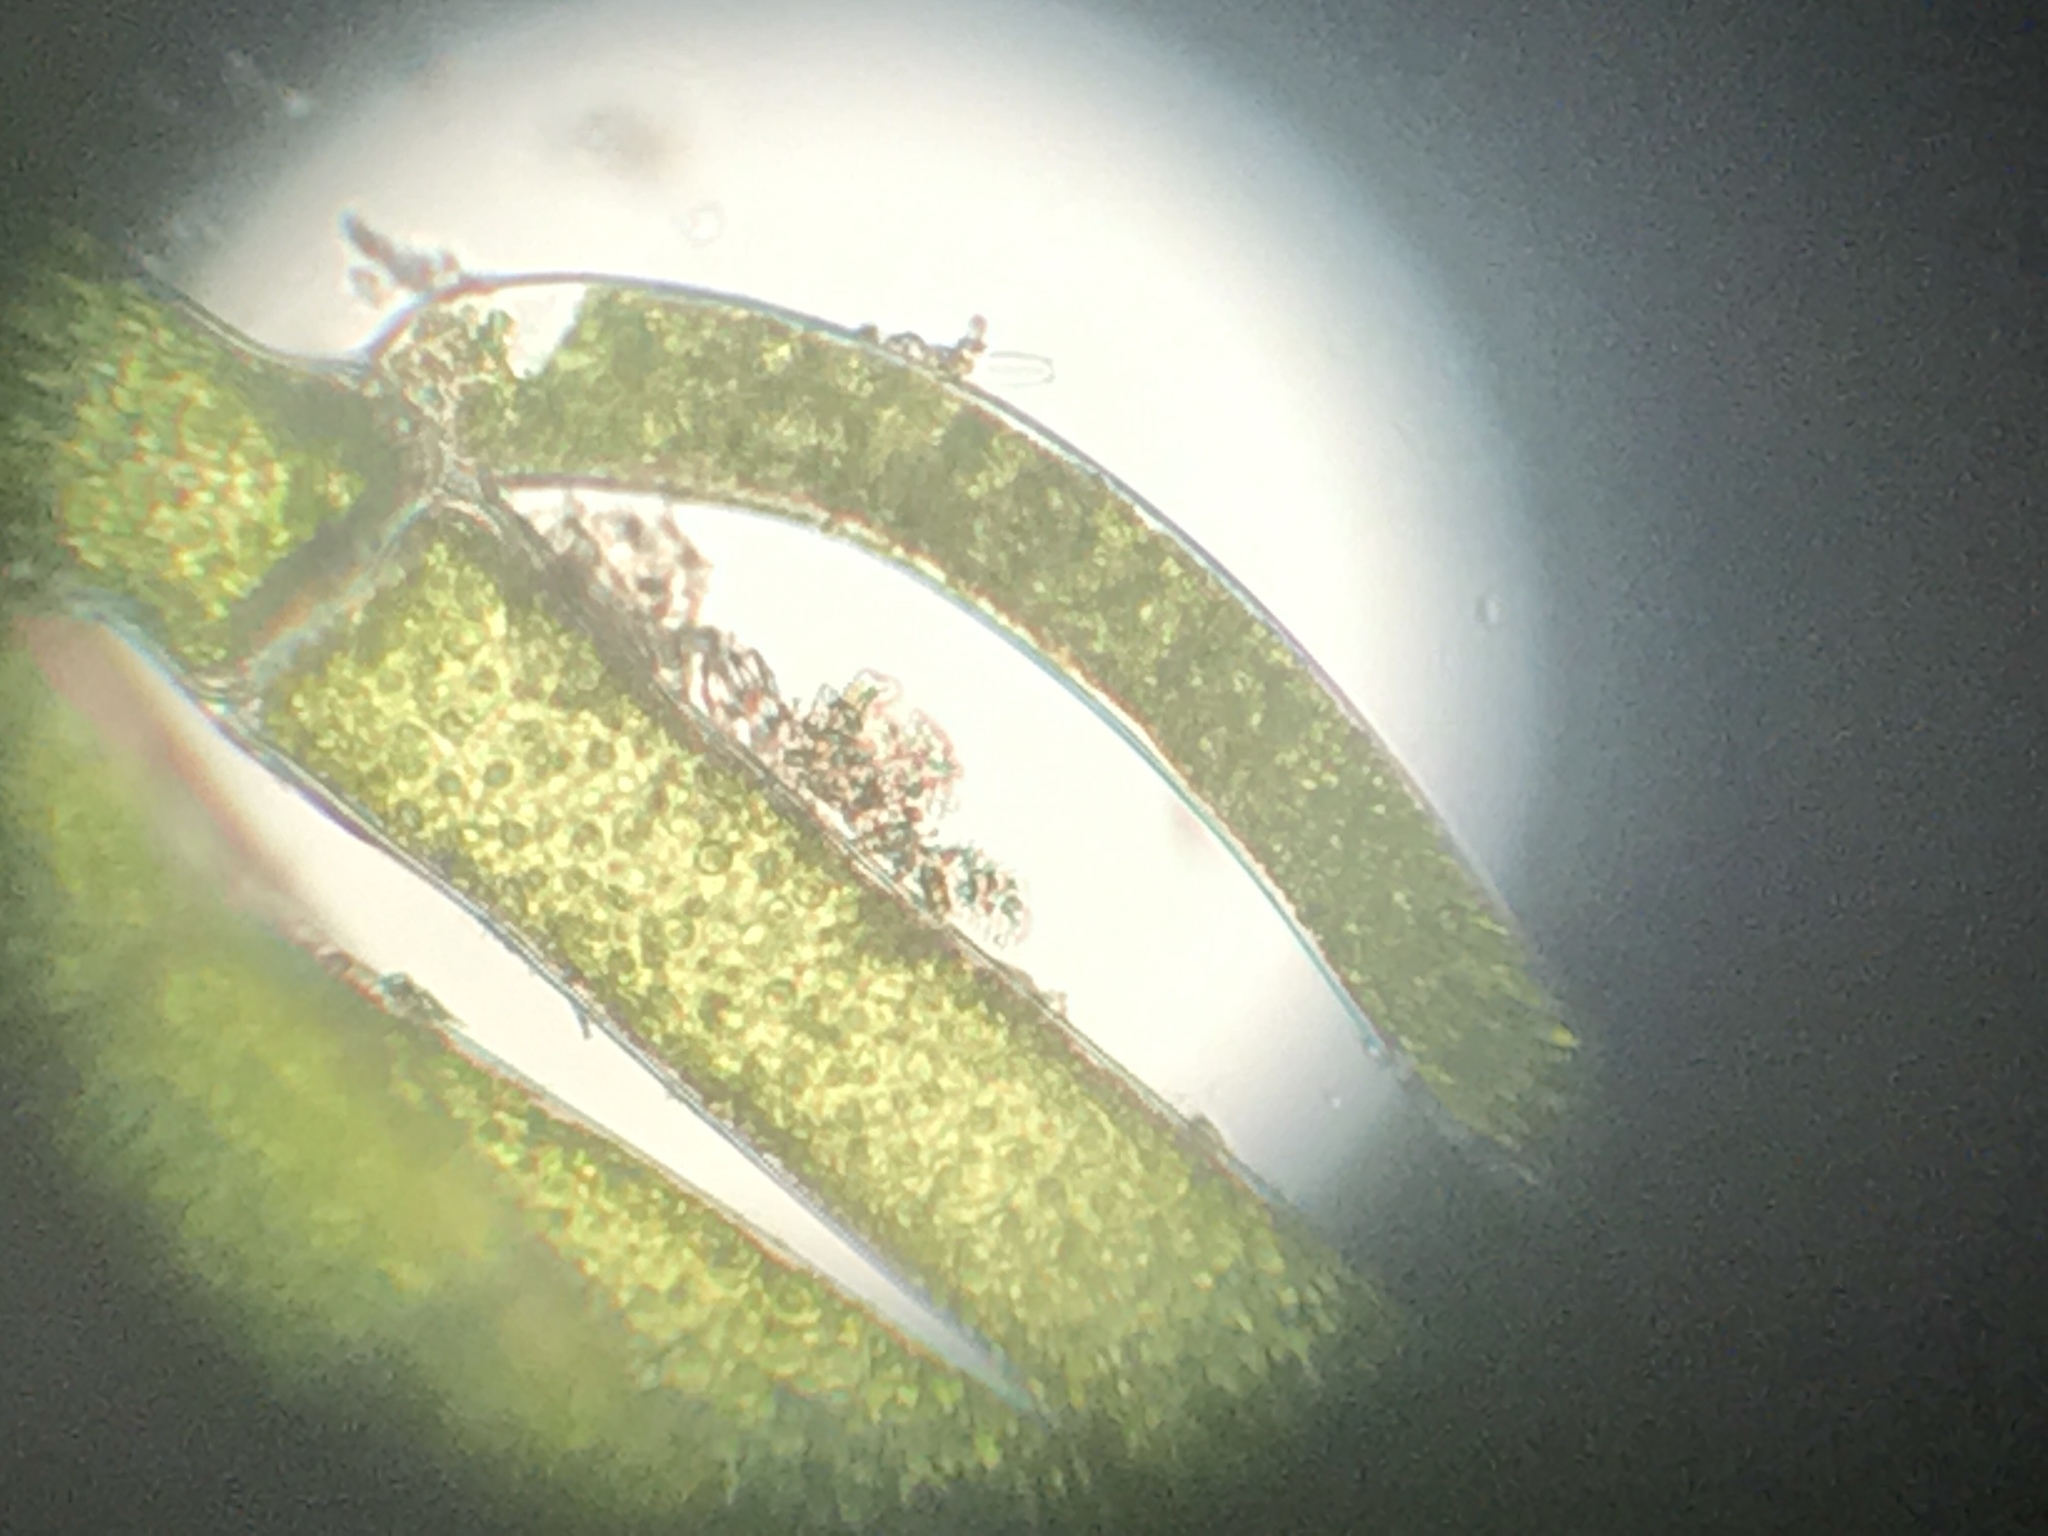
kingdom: Plantae
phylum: Chlorophyta
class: Ulvophyceae
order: Cladophorales
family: Cladophoraceae
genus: Cladophora
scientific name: Cladophora
